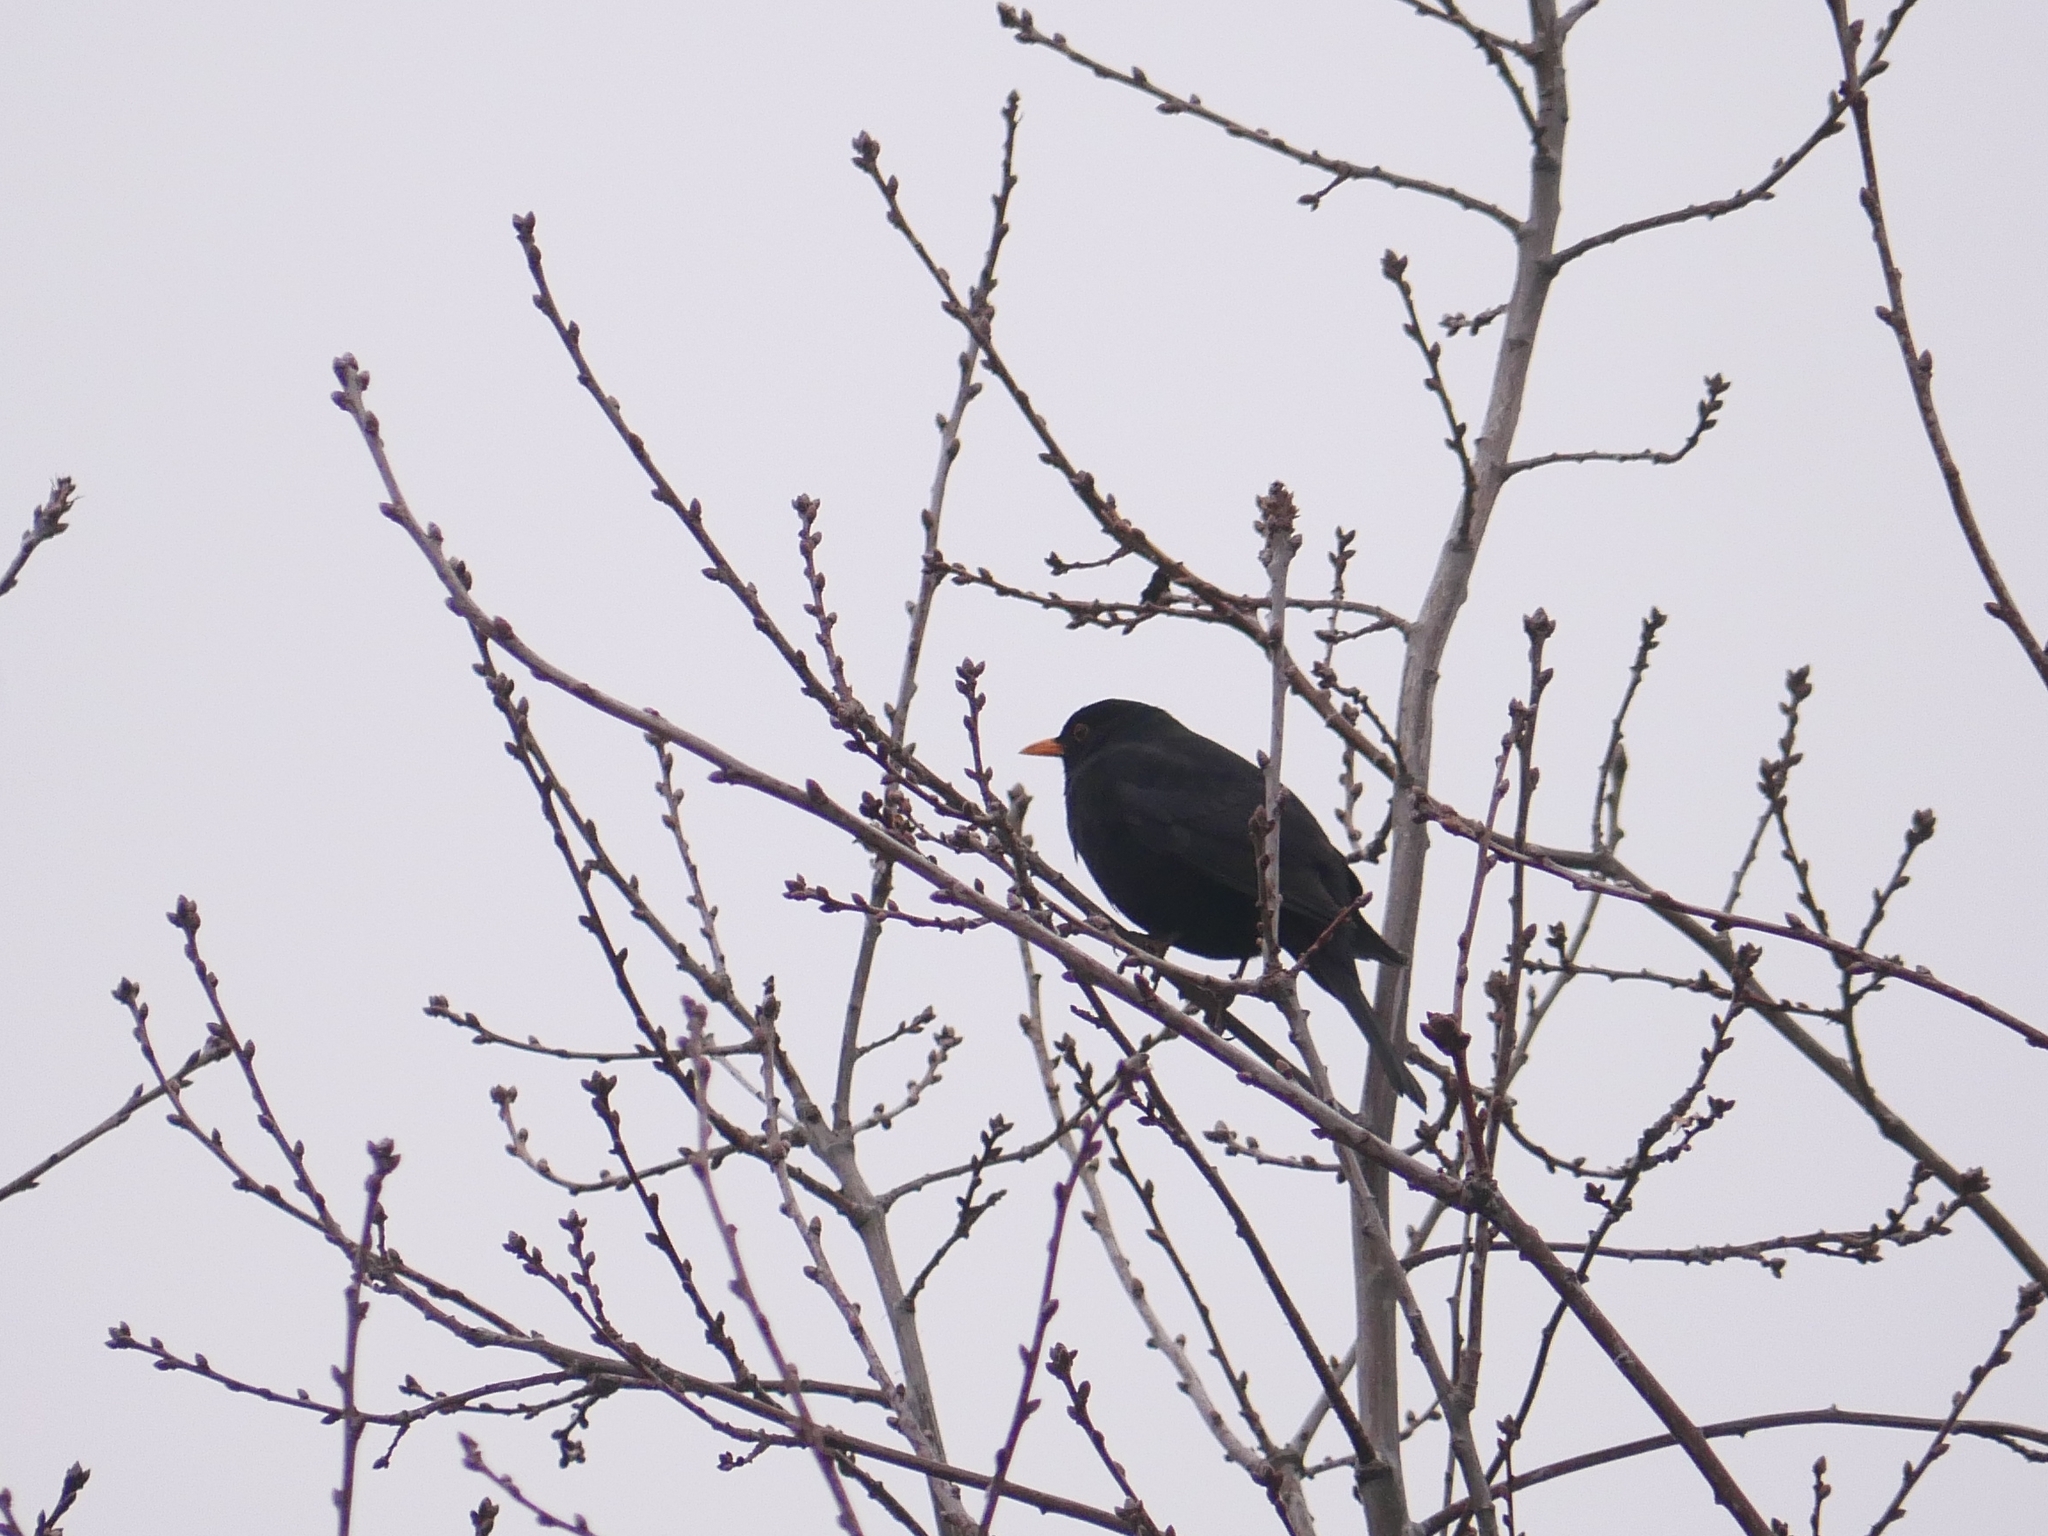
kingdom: Animalia
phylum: Chordata
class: Aves
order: Passeriformes
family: Turdidae
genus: Turdus
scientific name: Turdus merula
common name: Common blackbird
